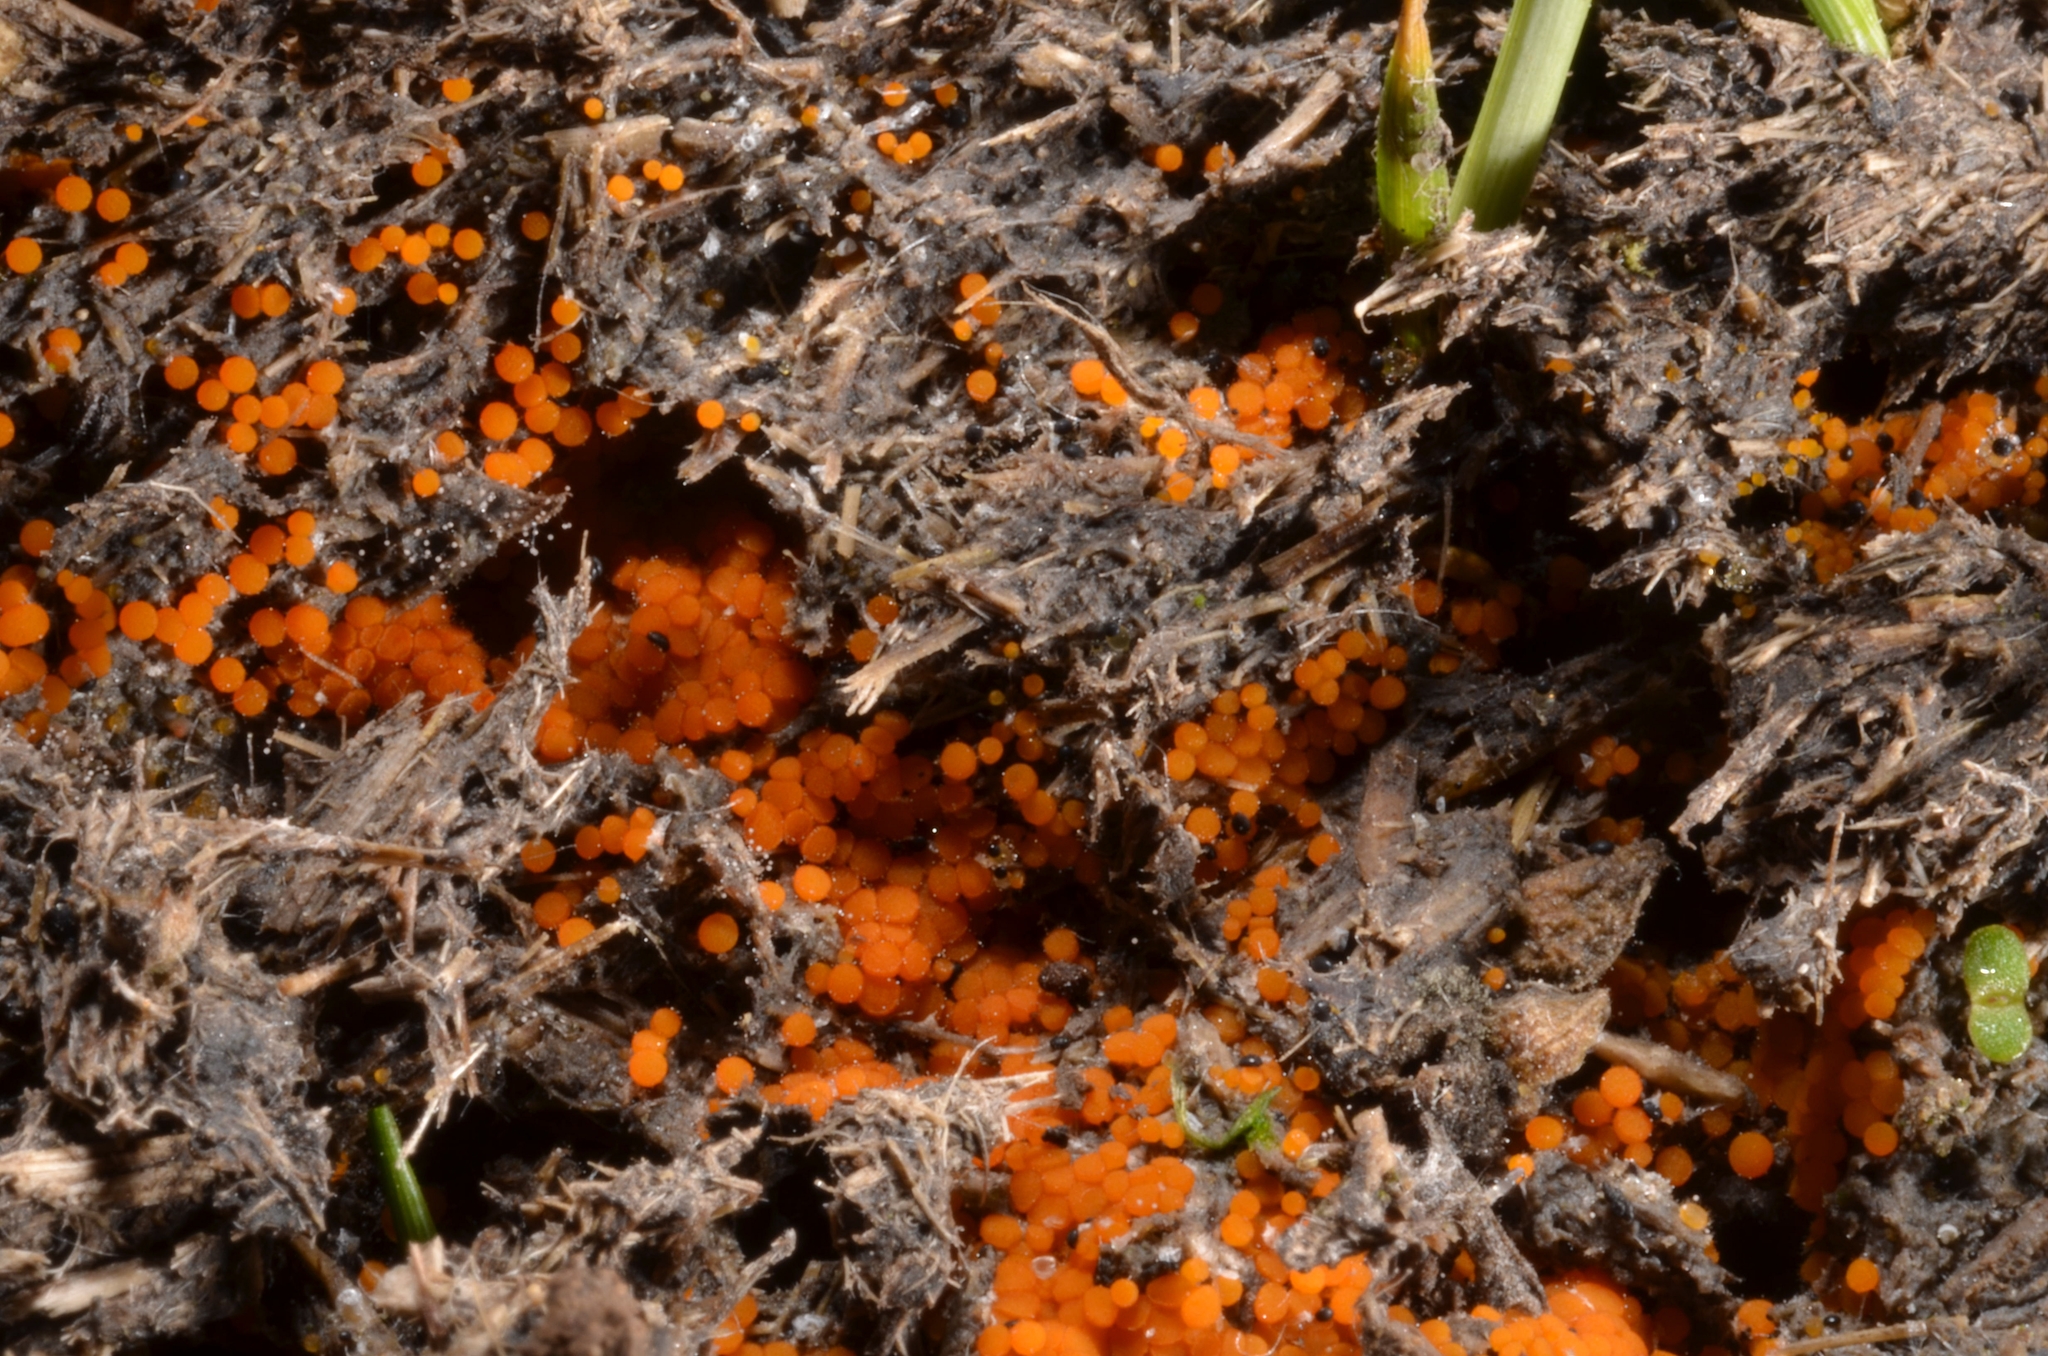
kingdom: Fungi
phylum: Ascomycota
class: Pezizomycetes
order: Pezizales
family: Pyronemataceae
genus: Cheilymenia
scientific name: Cheilymenia aurantiacorubra
